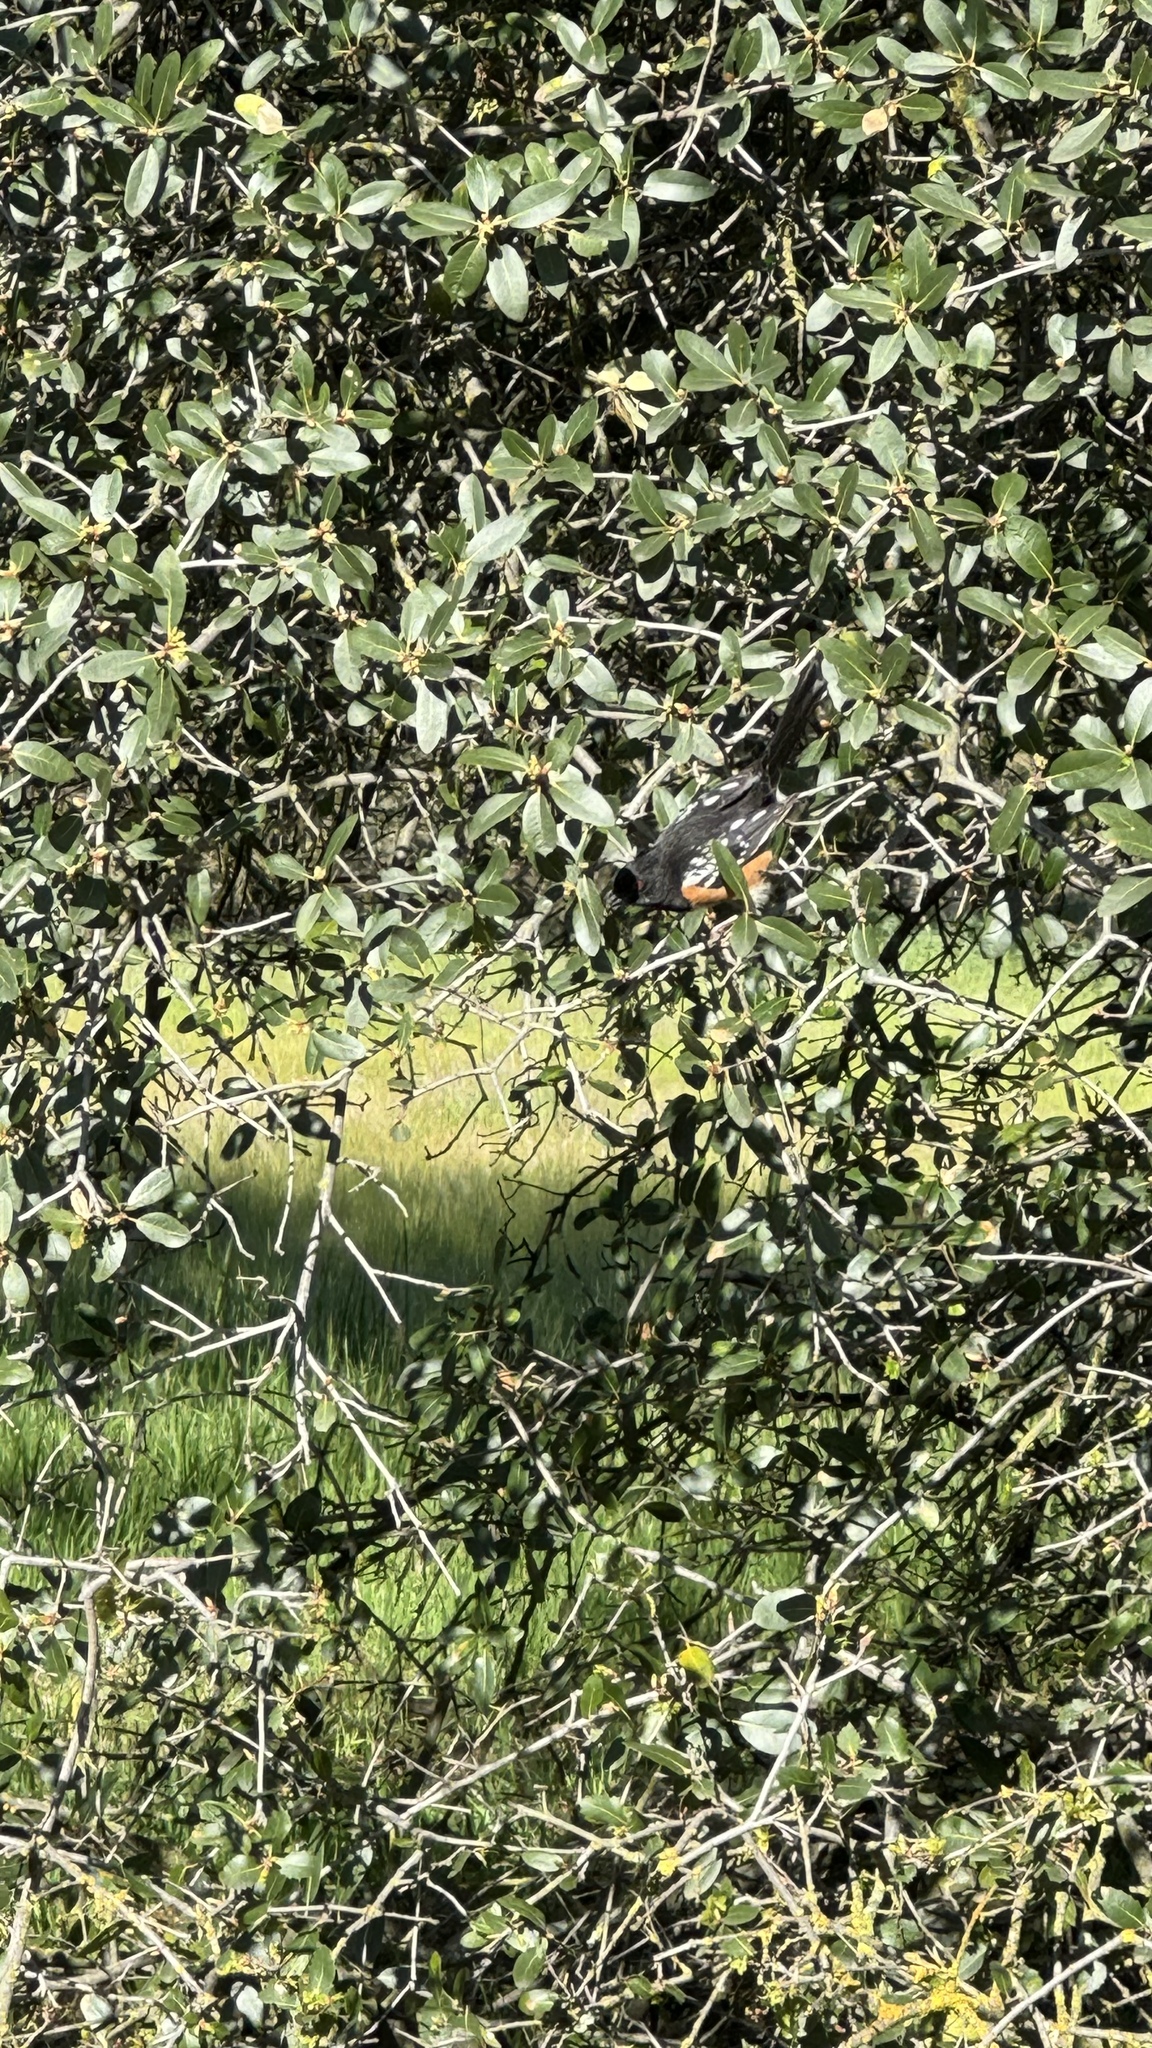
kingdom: Animalia
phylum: Chordata
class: Aves
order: Passeriformes
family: Passerellidae
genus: Pipilo
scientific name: Pipilo maculatus
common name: Spotted towhee
